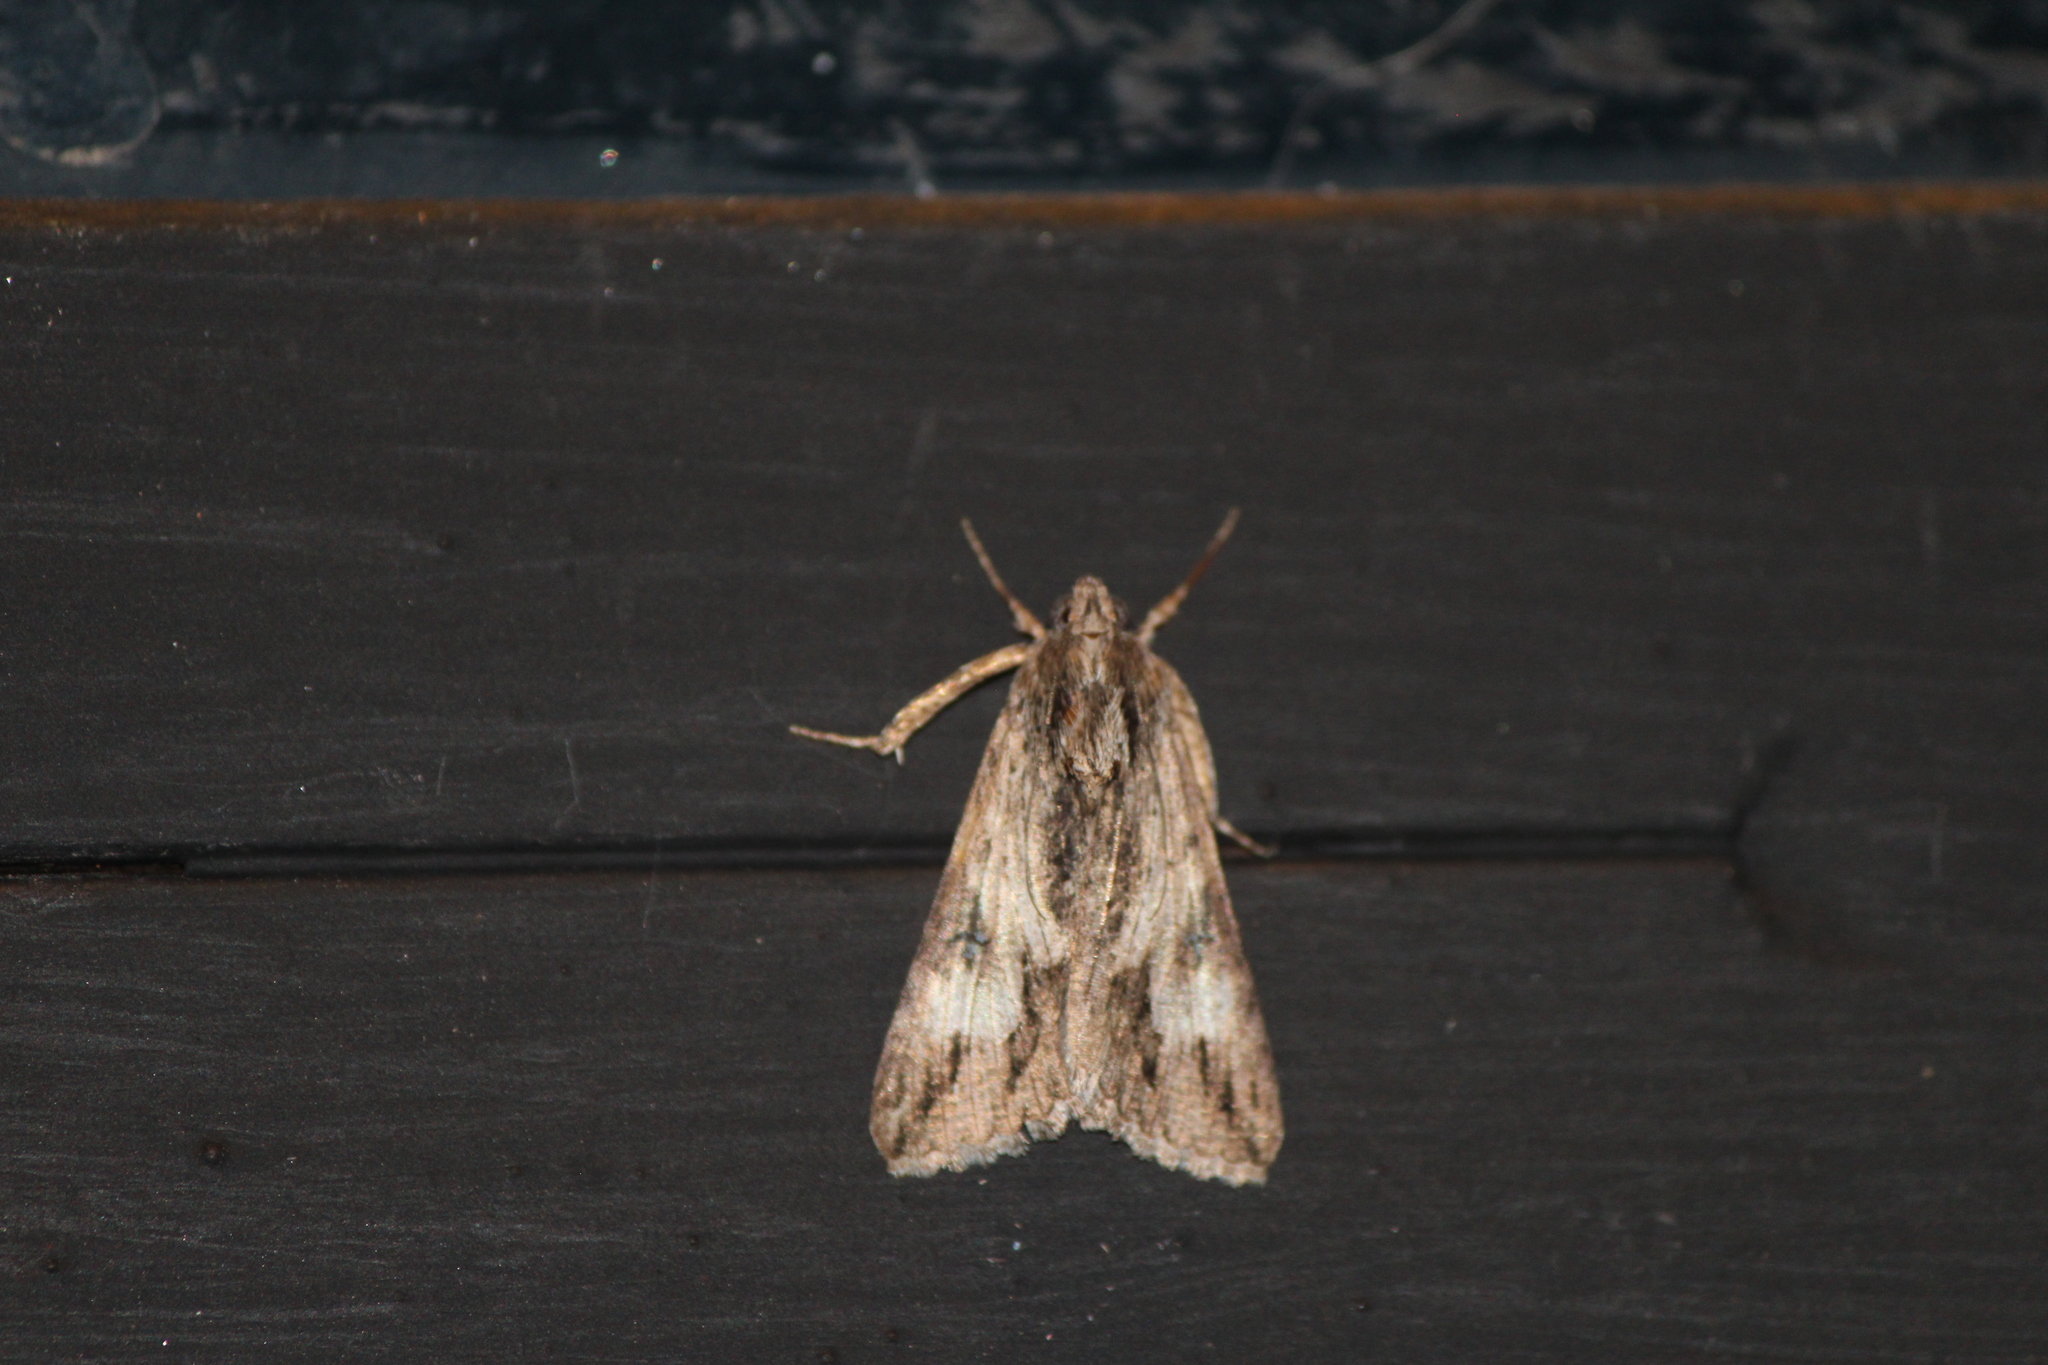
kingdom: Animalia
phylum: Arthropoda
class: Insecta
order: Lepidoptera
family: Erebidae
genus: Melipotis
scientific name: Melipotis jucunda
